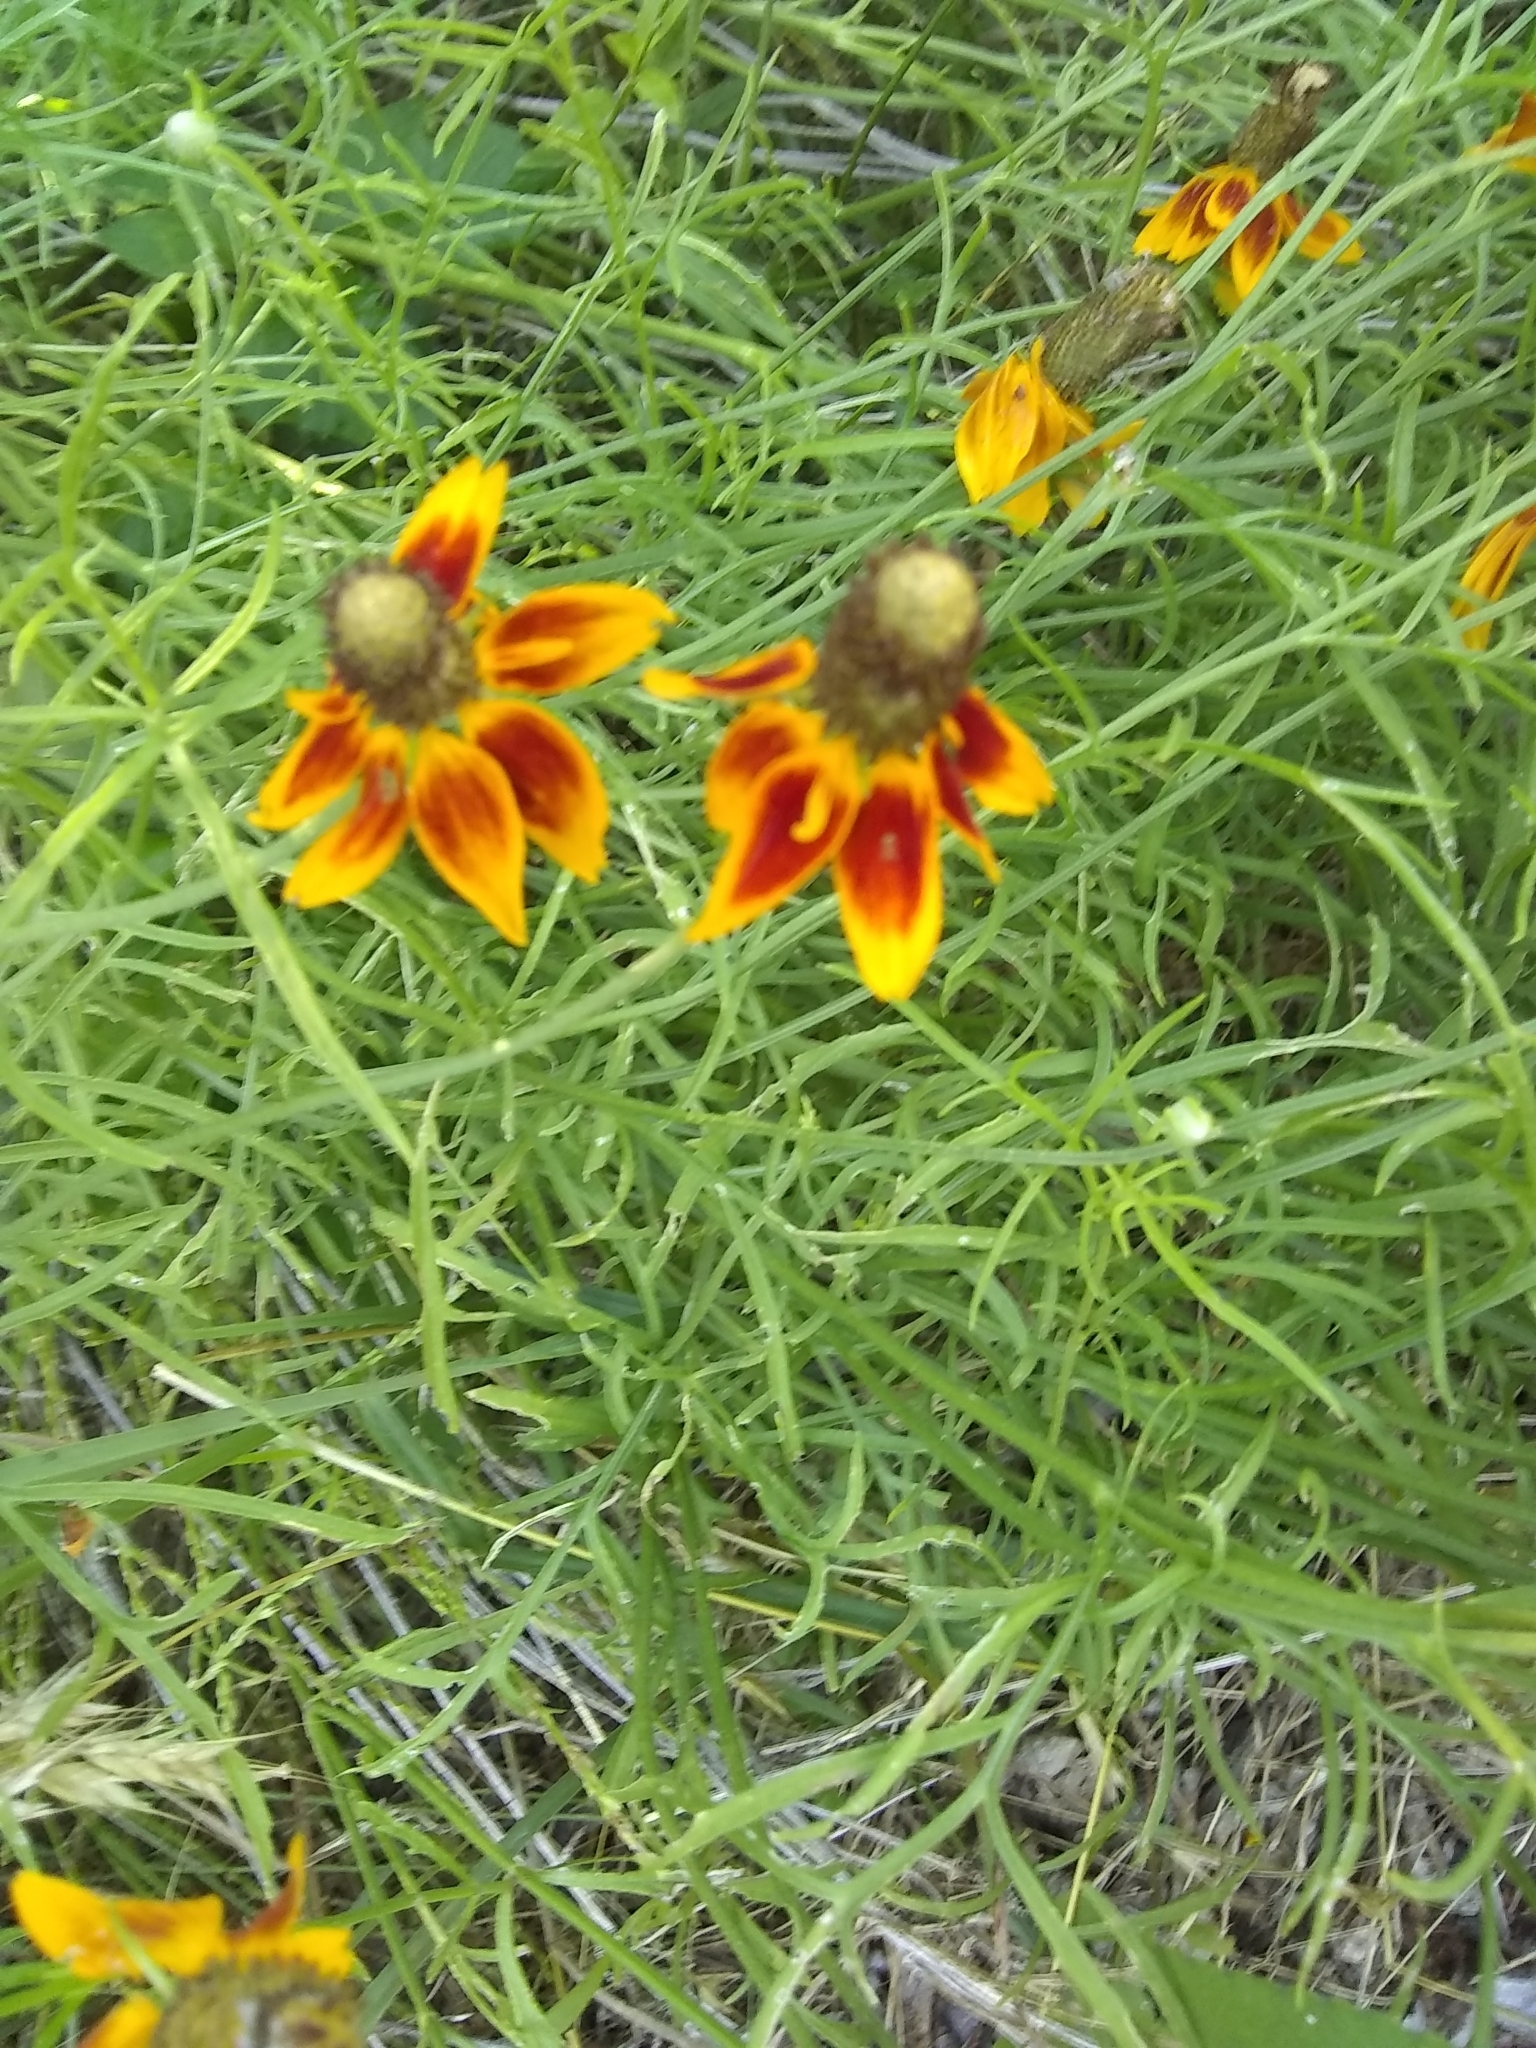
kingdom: Plantae
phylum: Tracheophyta
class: Magnoliopsida
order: Asterales
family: Asteraceae
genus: Ratibida
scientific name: Ratibida columnifera
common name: Prairie coneflower
